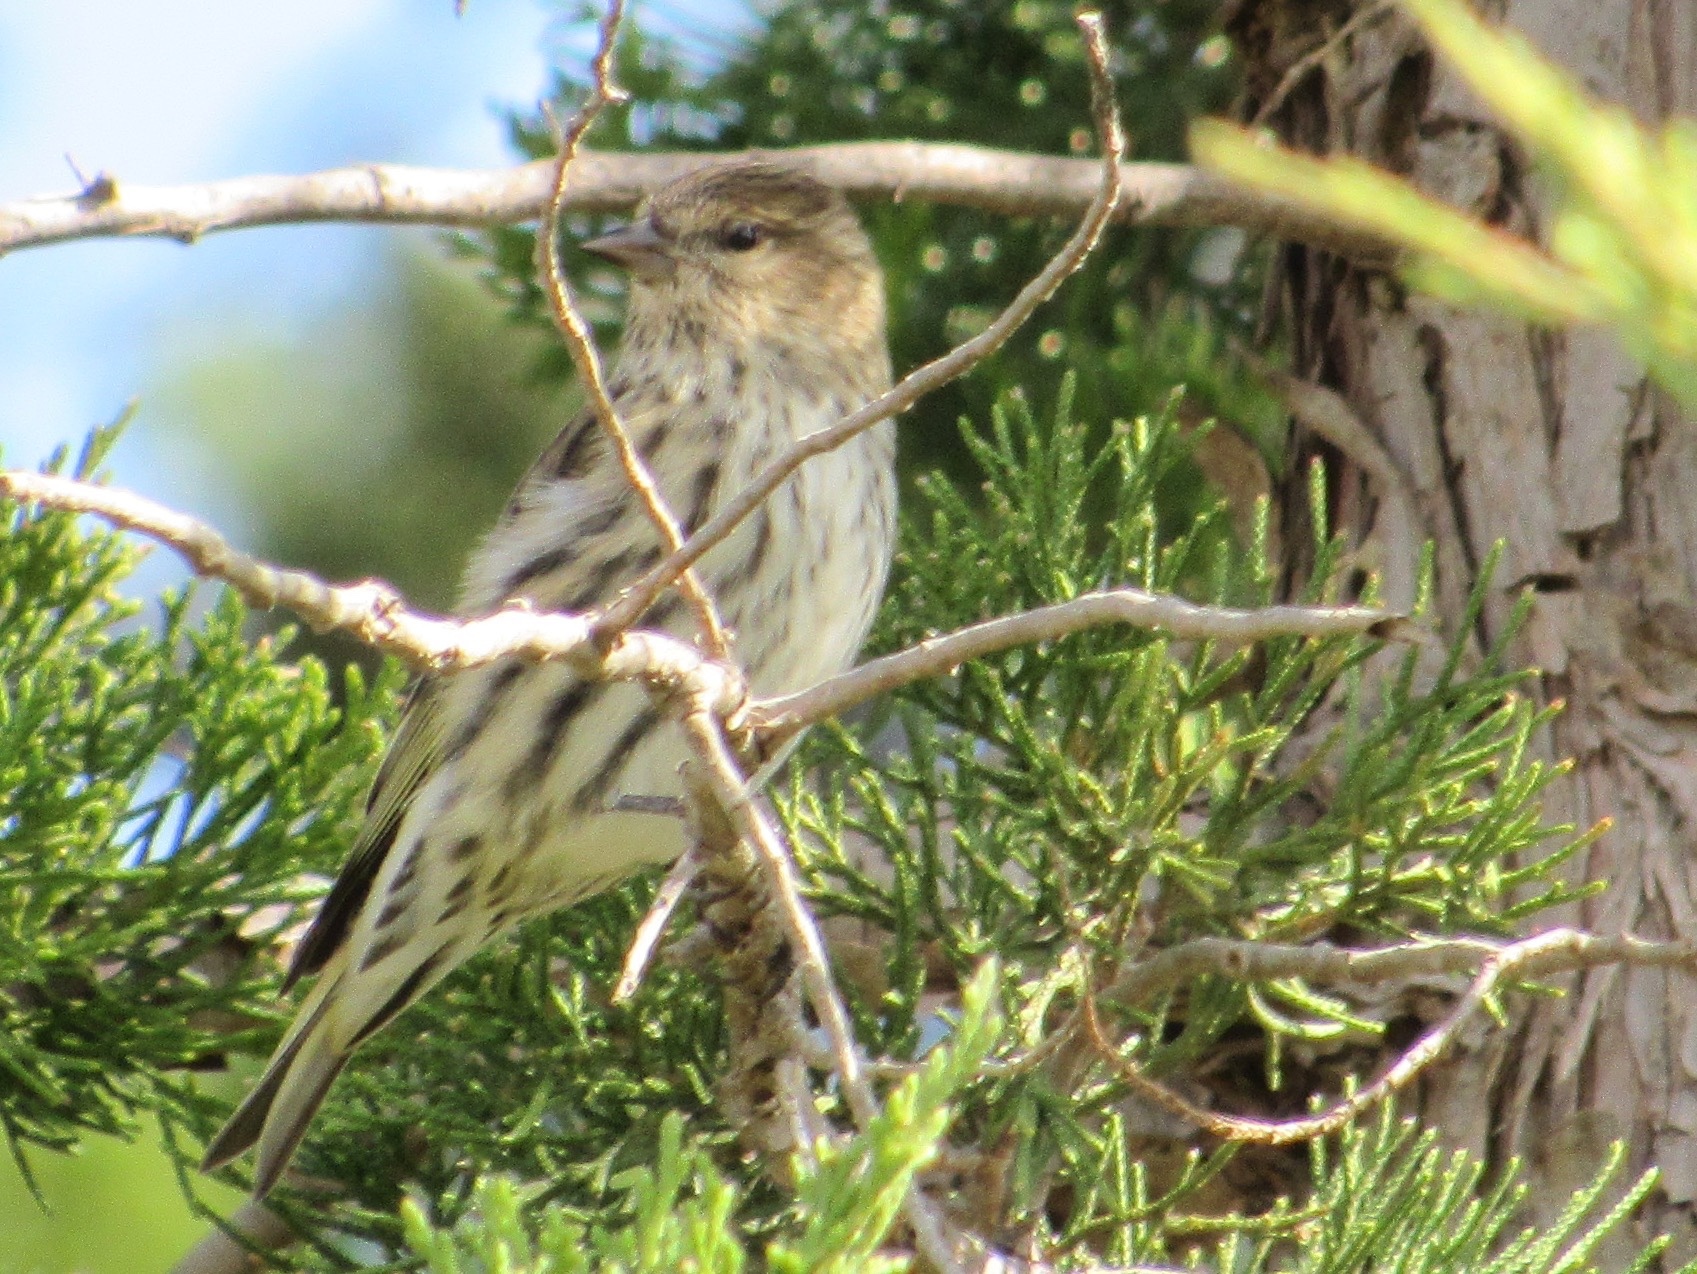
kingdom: Animalia
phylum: Chordata
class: Aves
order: Passeriformes
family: Fringillidae
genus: Spinus
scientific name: Spinus pinus
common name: Pine siskin
